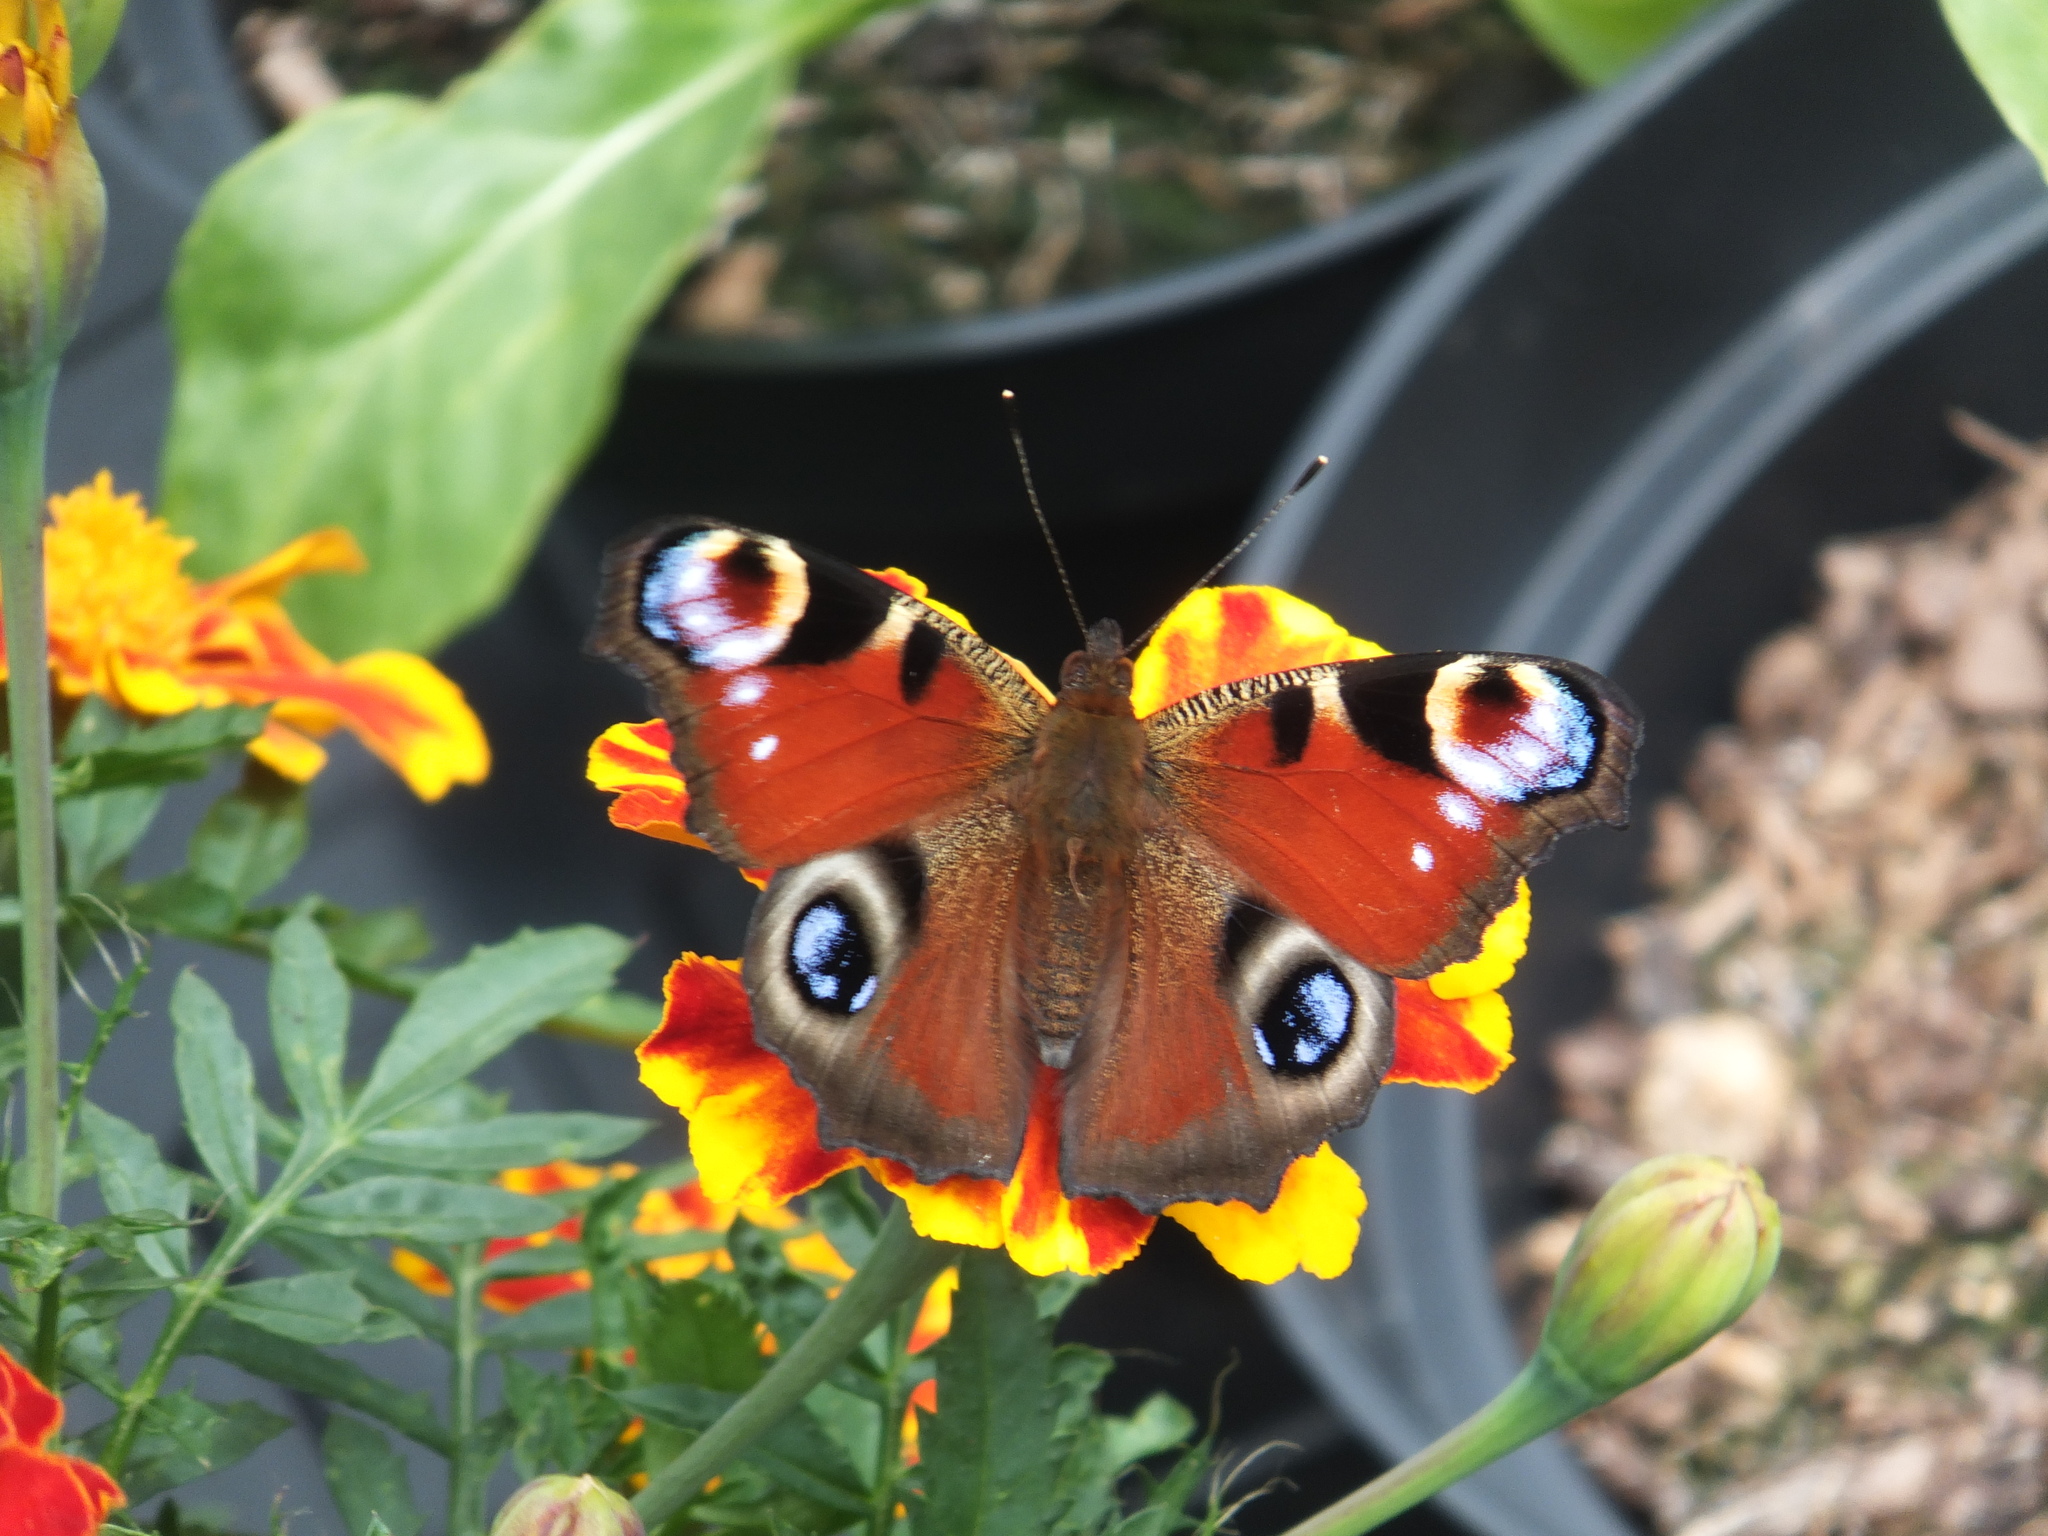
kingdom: Animalia
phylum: Arthropoda
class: Insecta
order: Lepidoptera
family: Nymphalidae
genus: Aglais
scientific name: Aglais io
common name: Peacock
